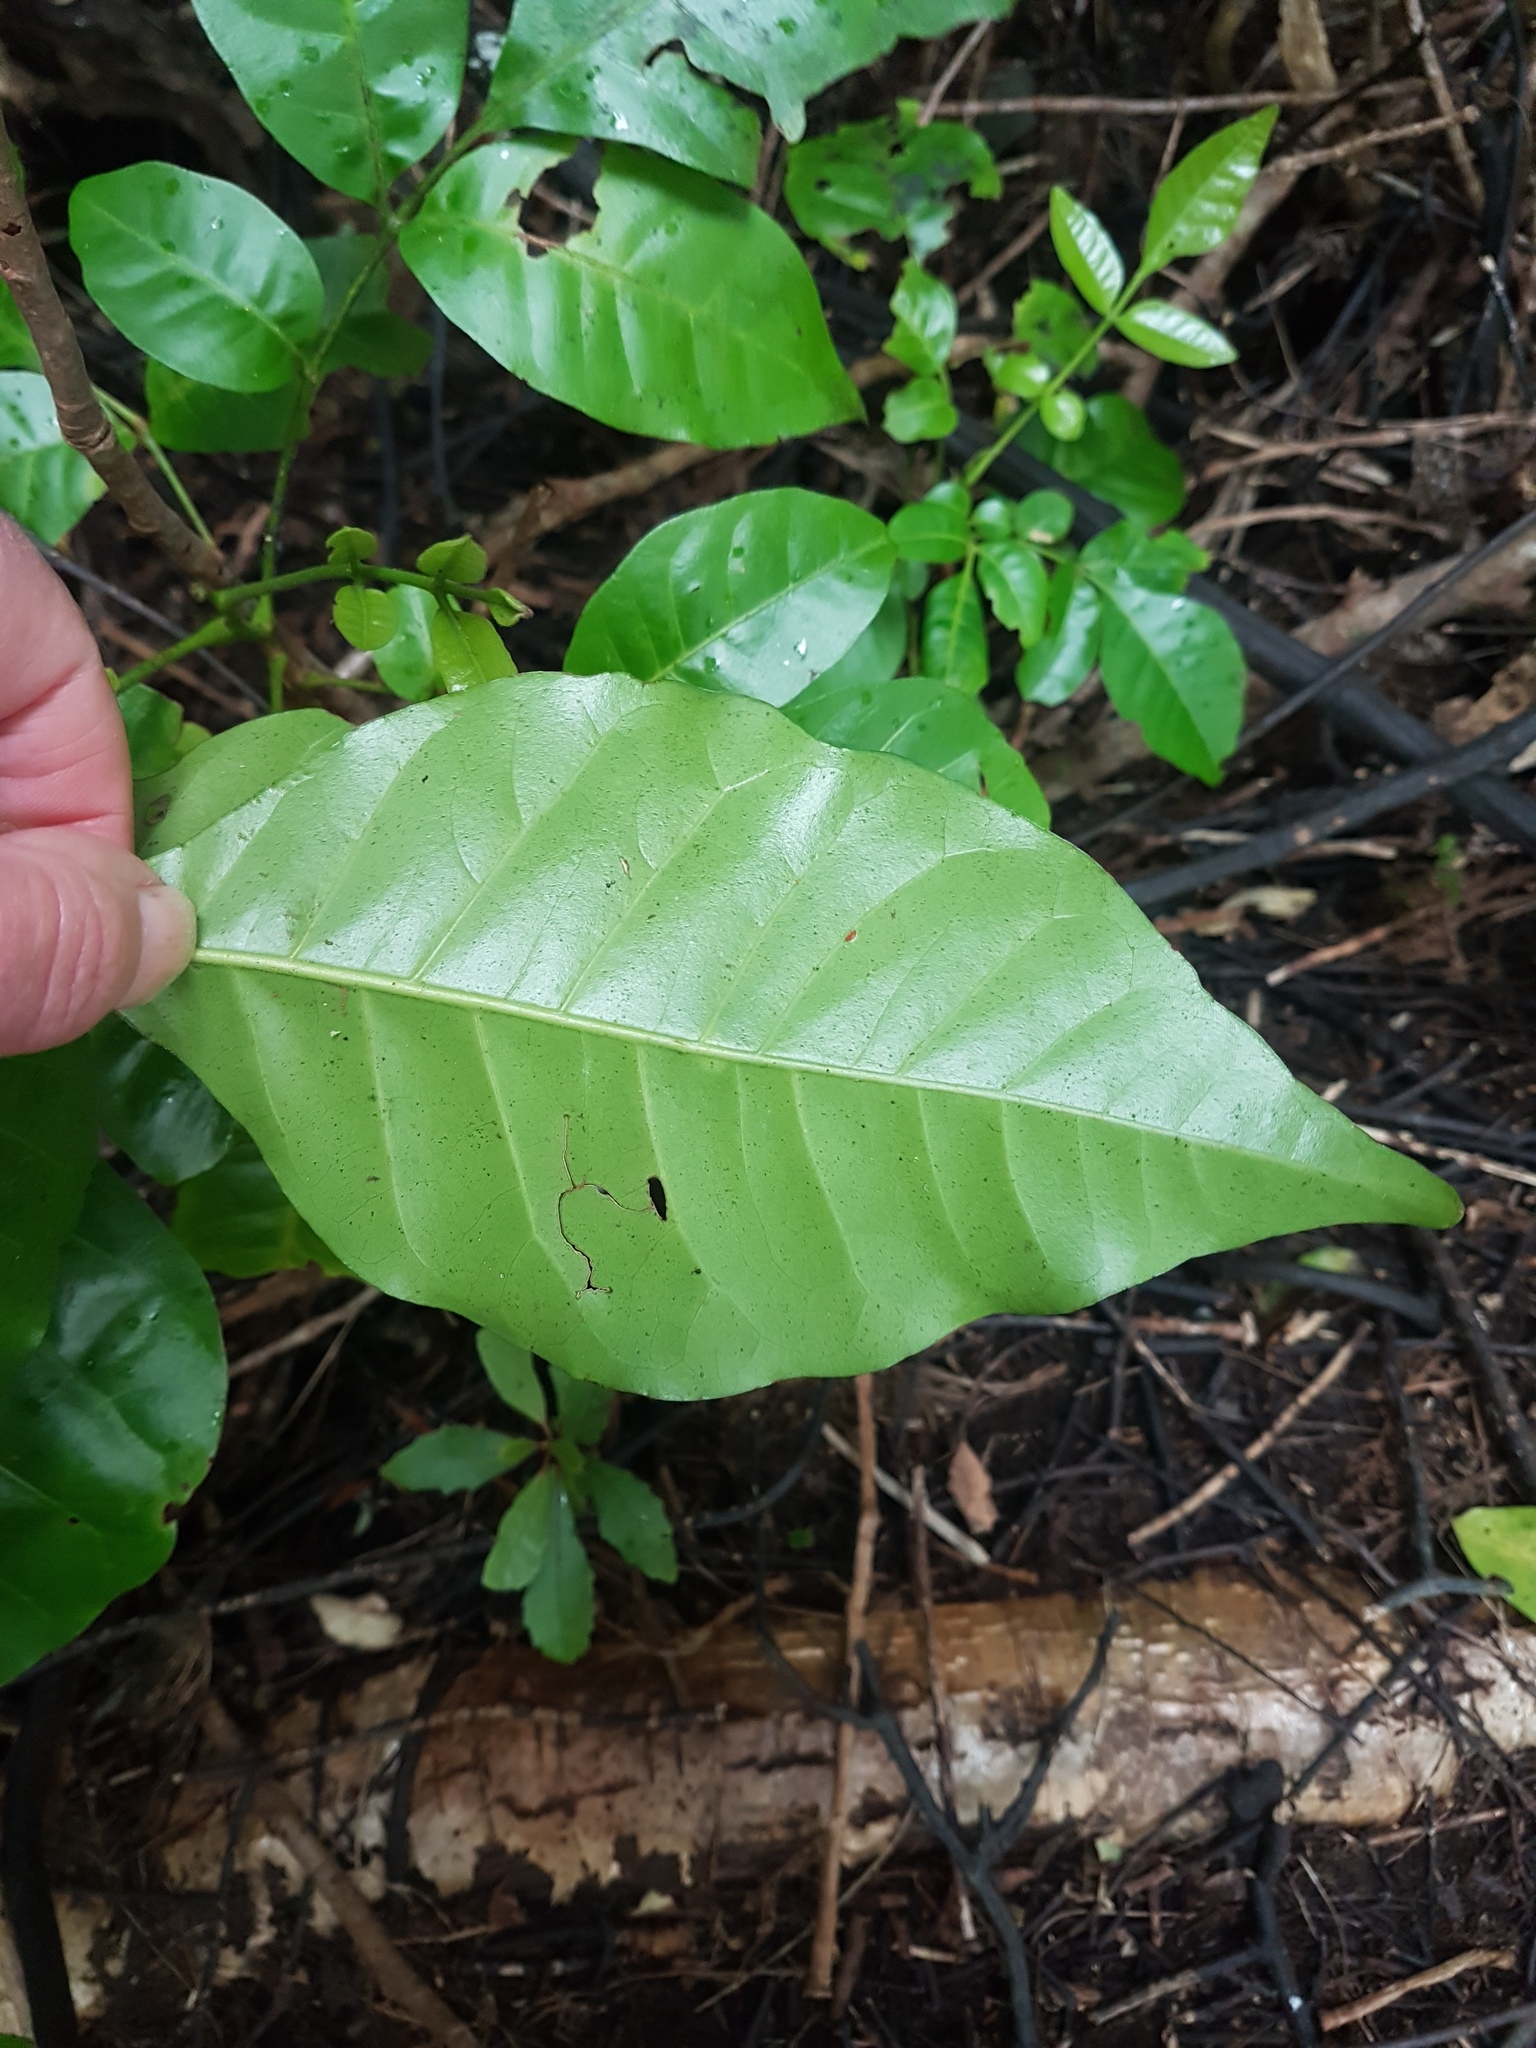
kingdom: Plantae
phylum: Tracheophyta
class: Magnoliopsida
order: Sapindales
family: Meliaceae
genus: Didymocheton
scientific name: Didymocheton spectabilis
